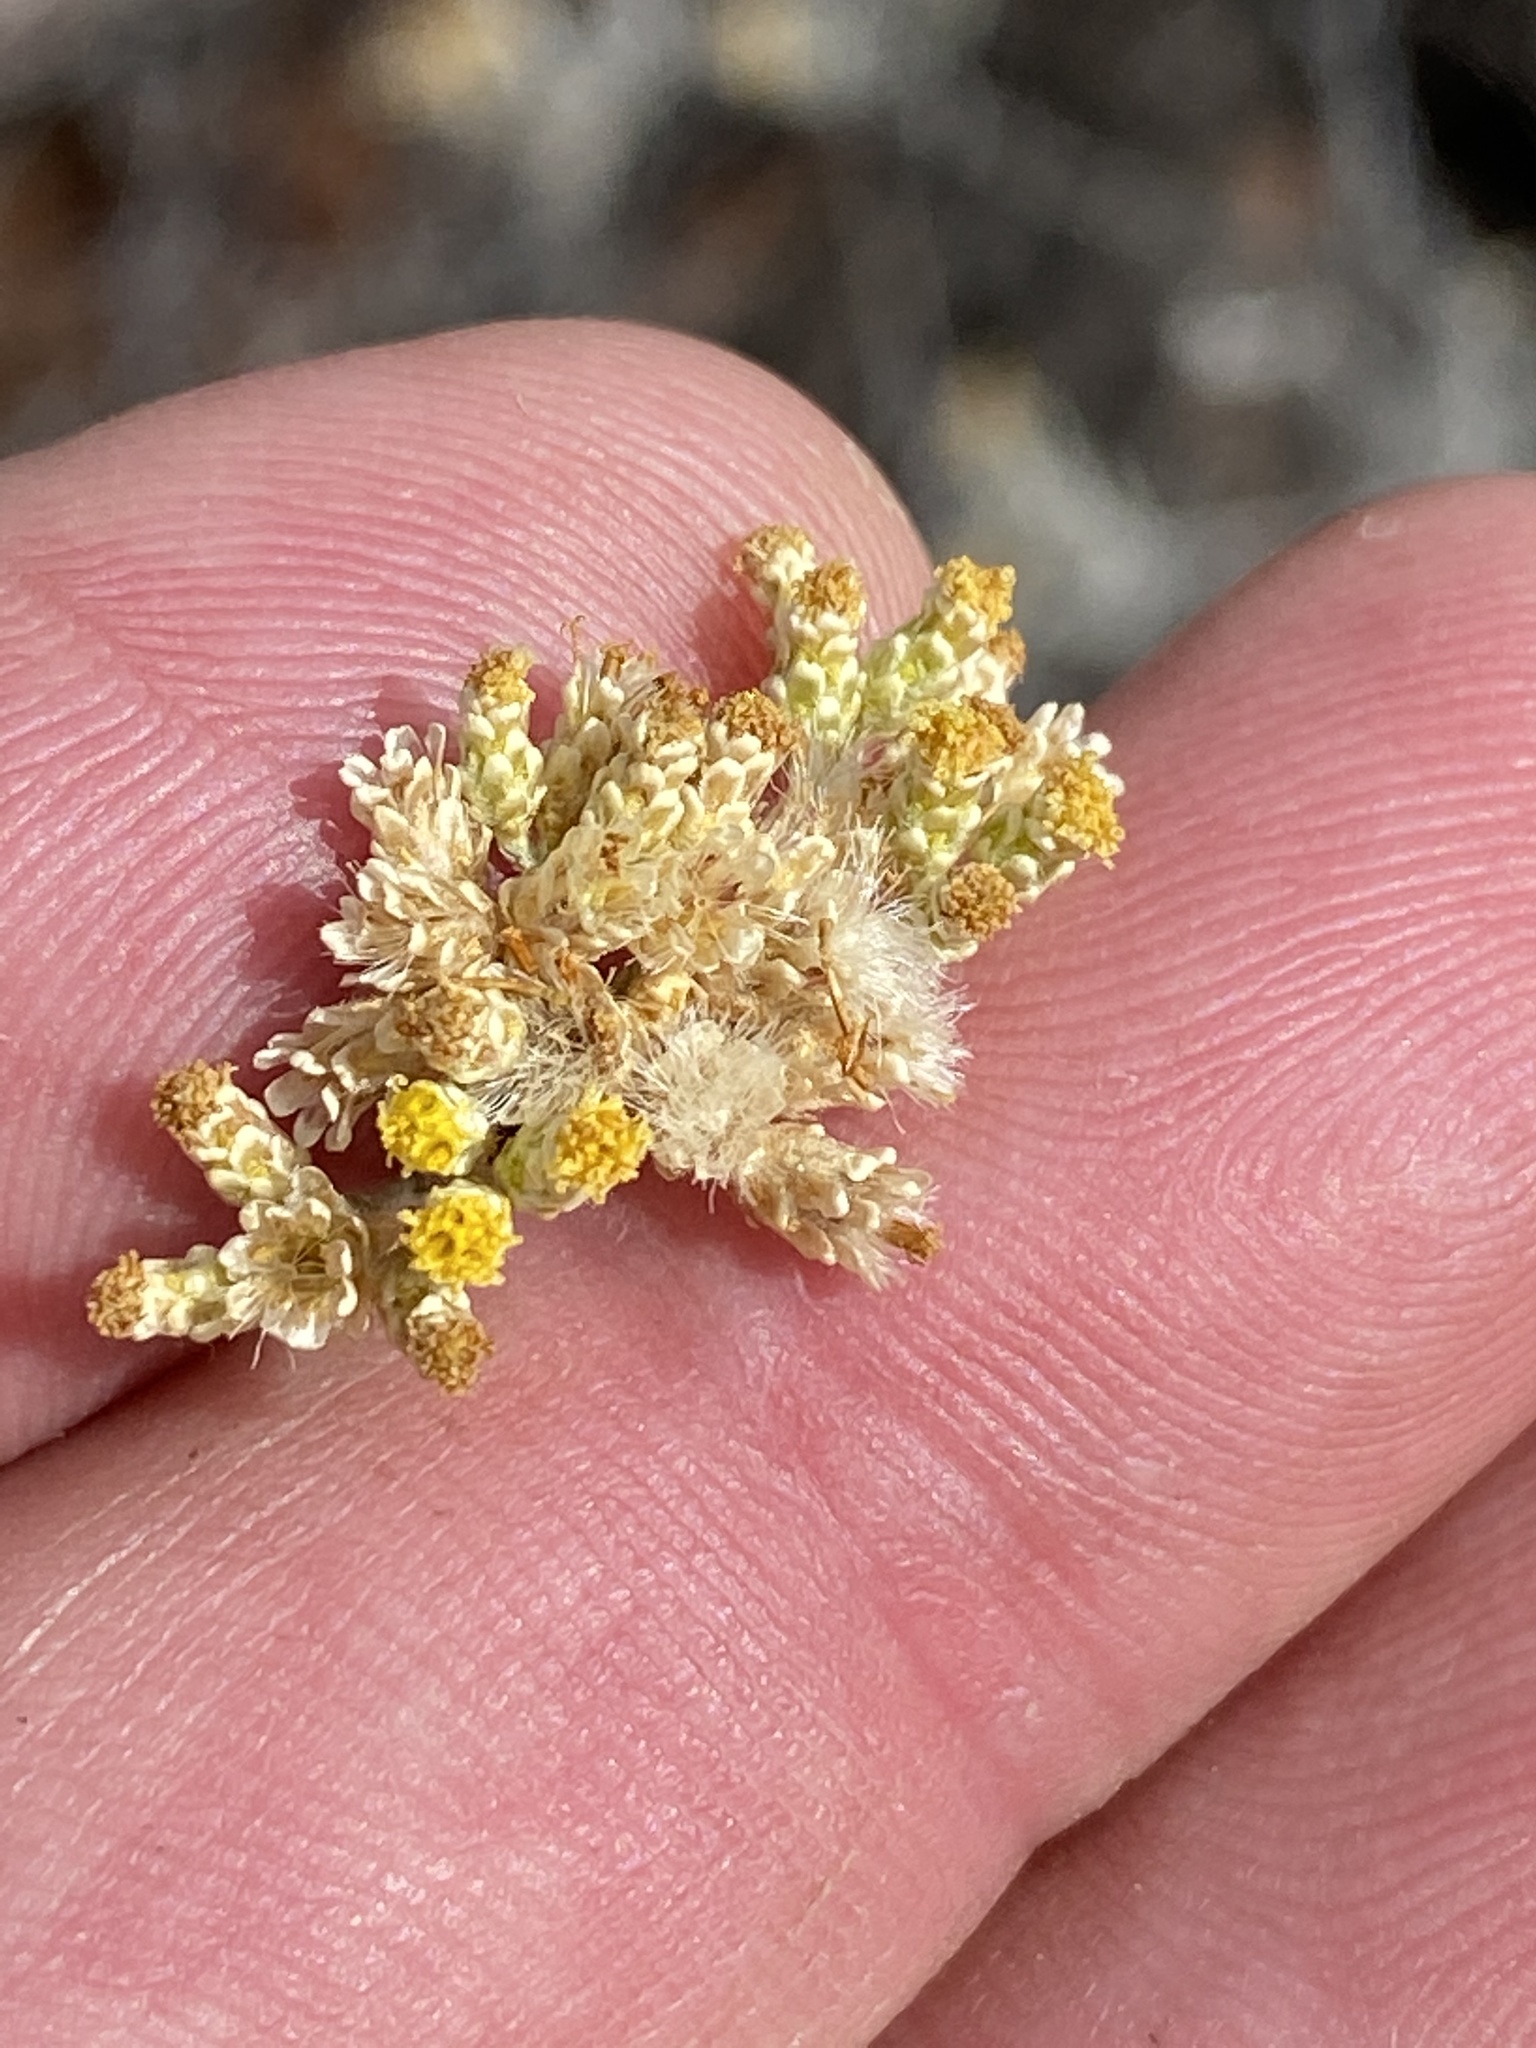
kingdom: Plantae
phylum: Tracheophyta
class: Magnoliopsida
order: Asterales
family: Asteraceae
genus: Helichrysum
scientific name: Helichrysum rosum
